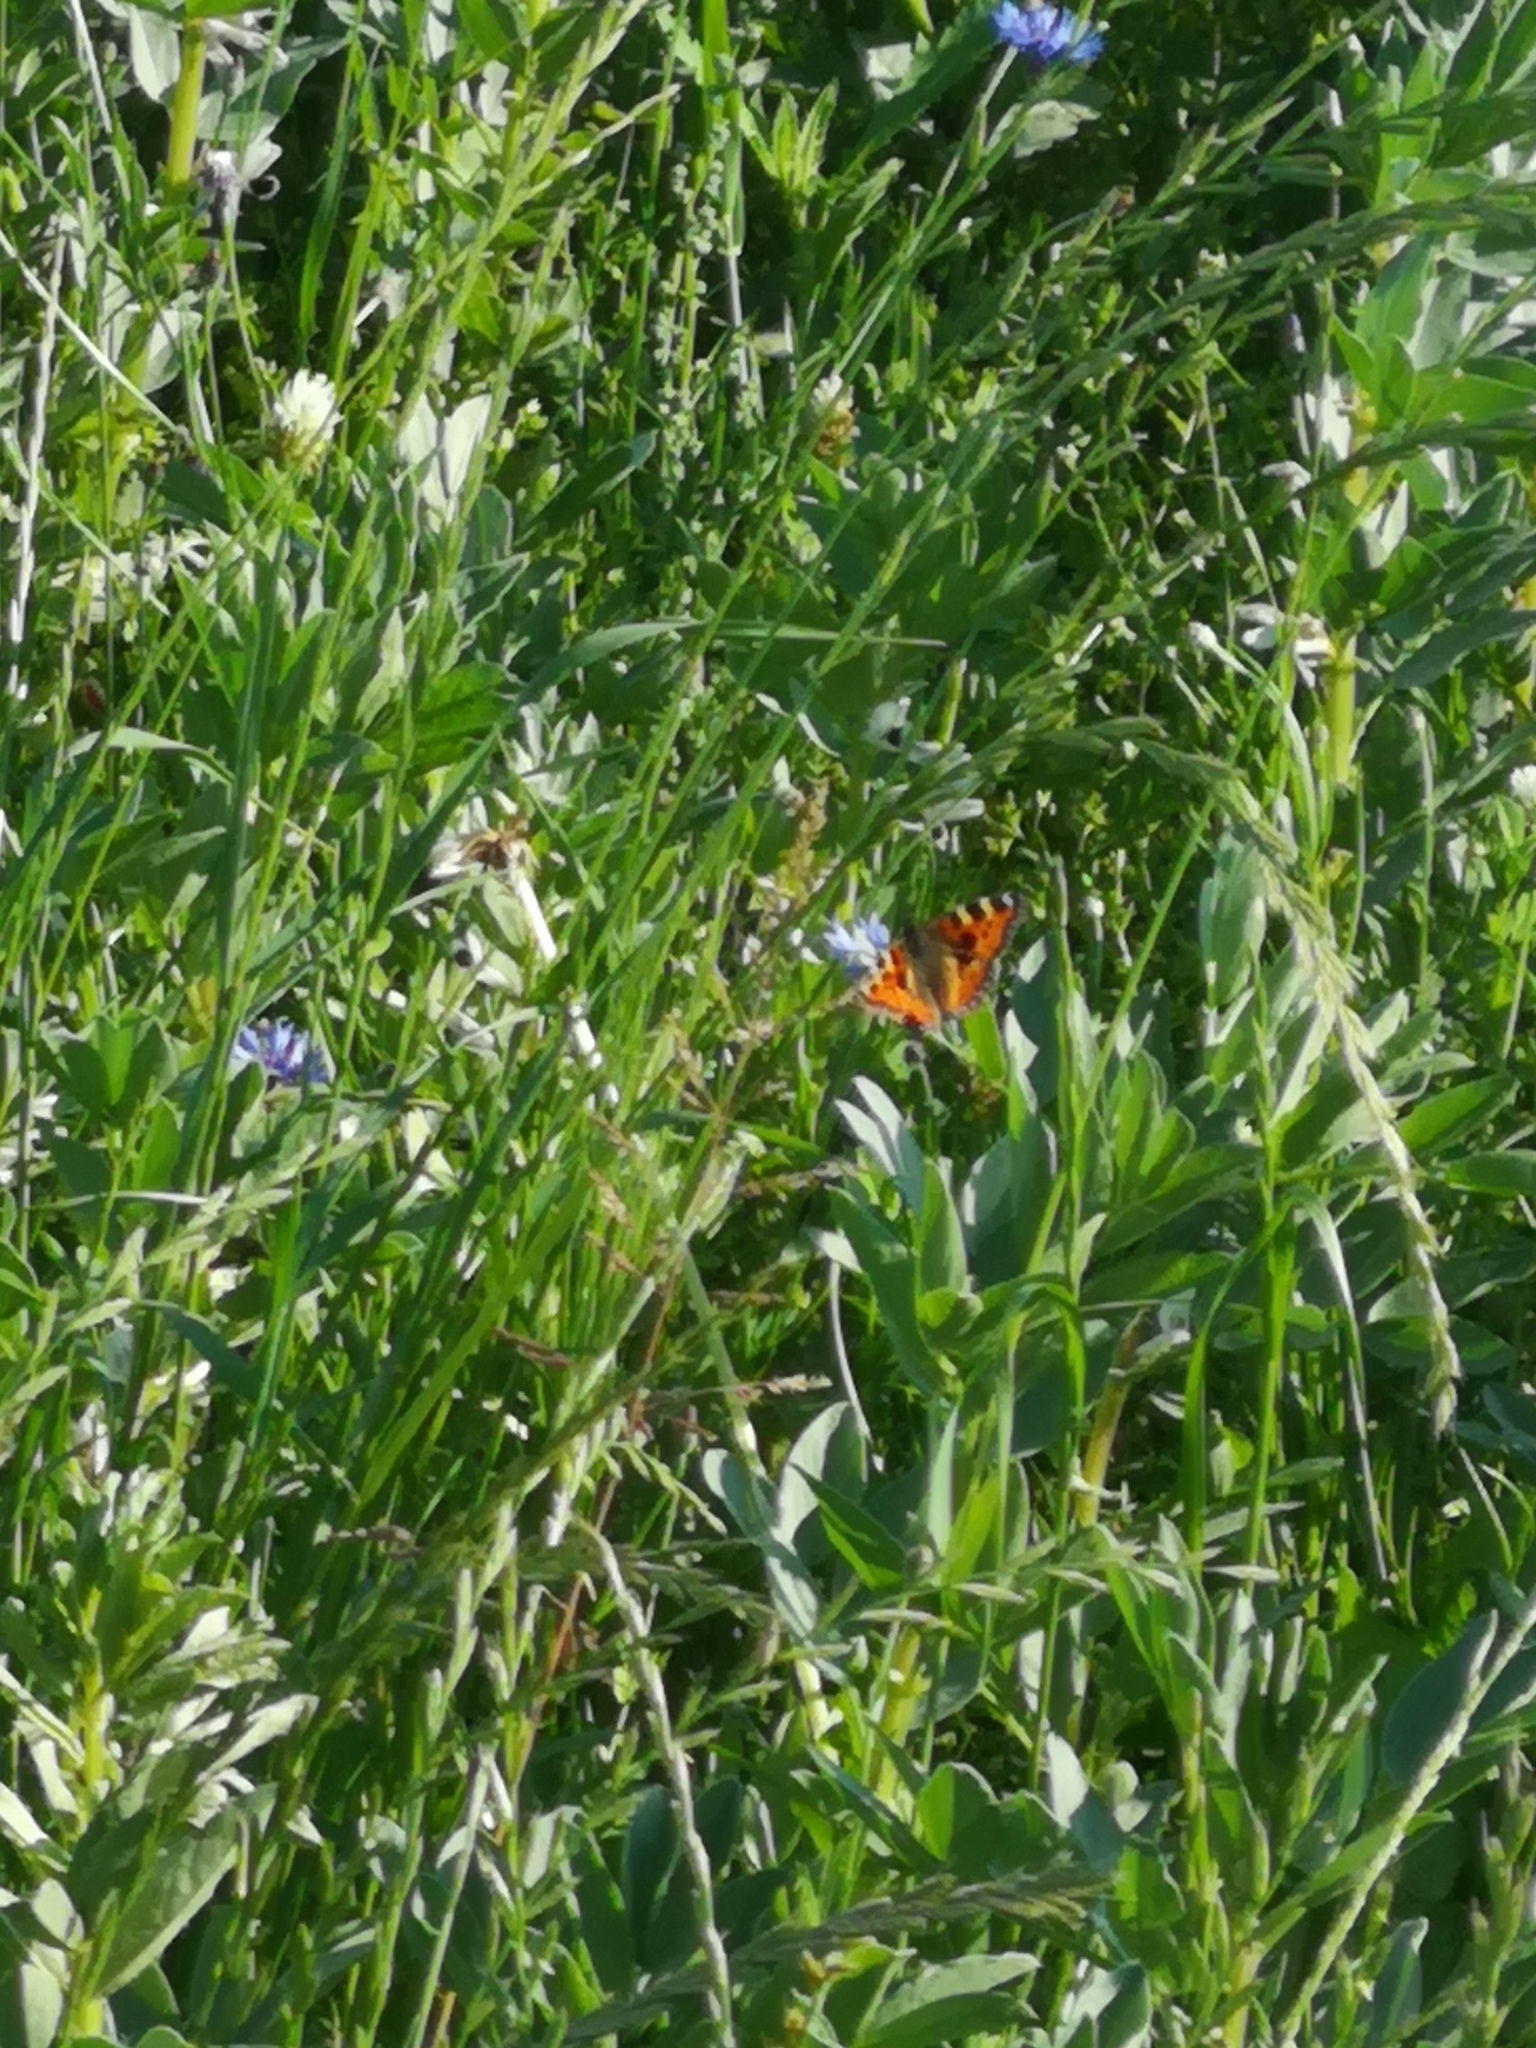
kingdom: Animalia
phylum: Arthropoda
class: Insecta
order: Lepidoptera
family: Nymphalidae
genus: Aglais
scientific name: Aglais urticae
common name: Small tortoiseshell
